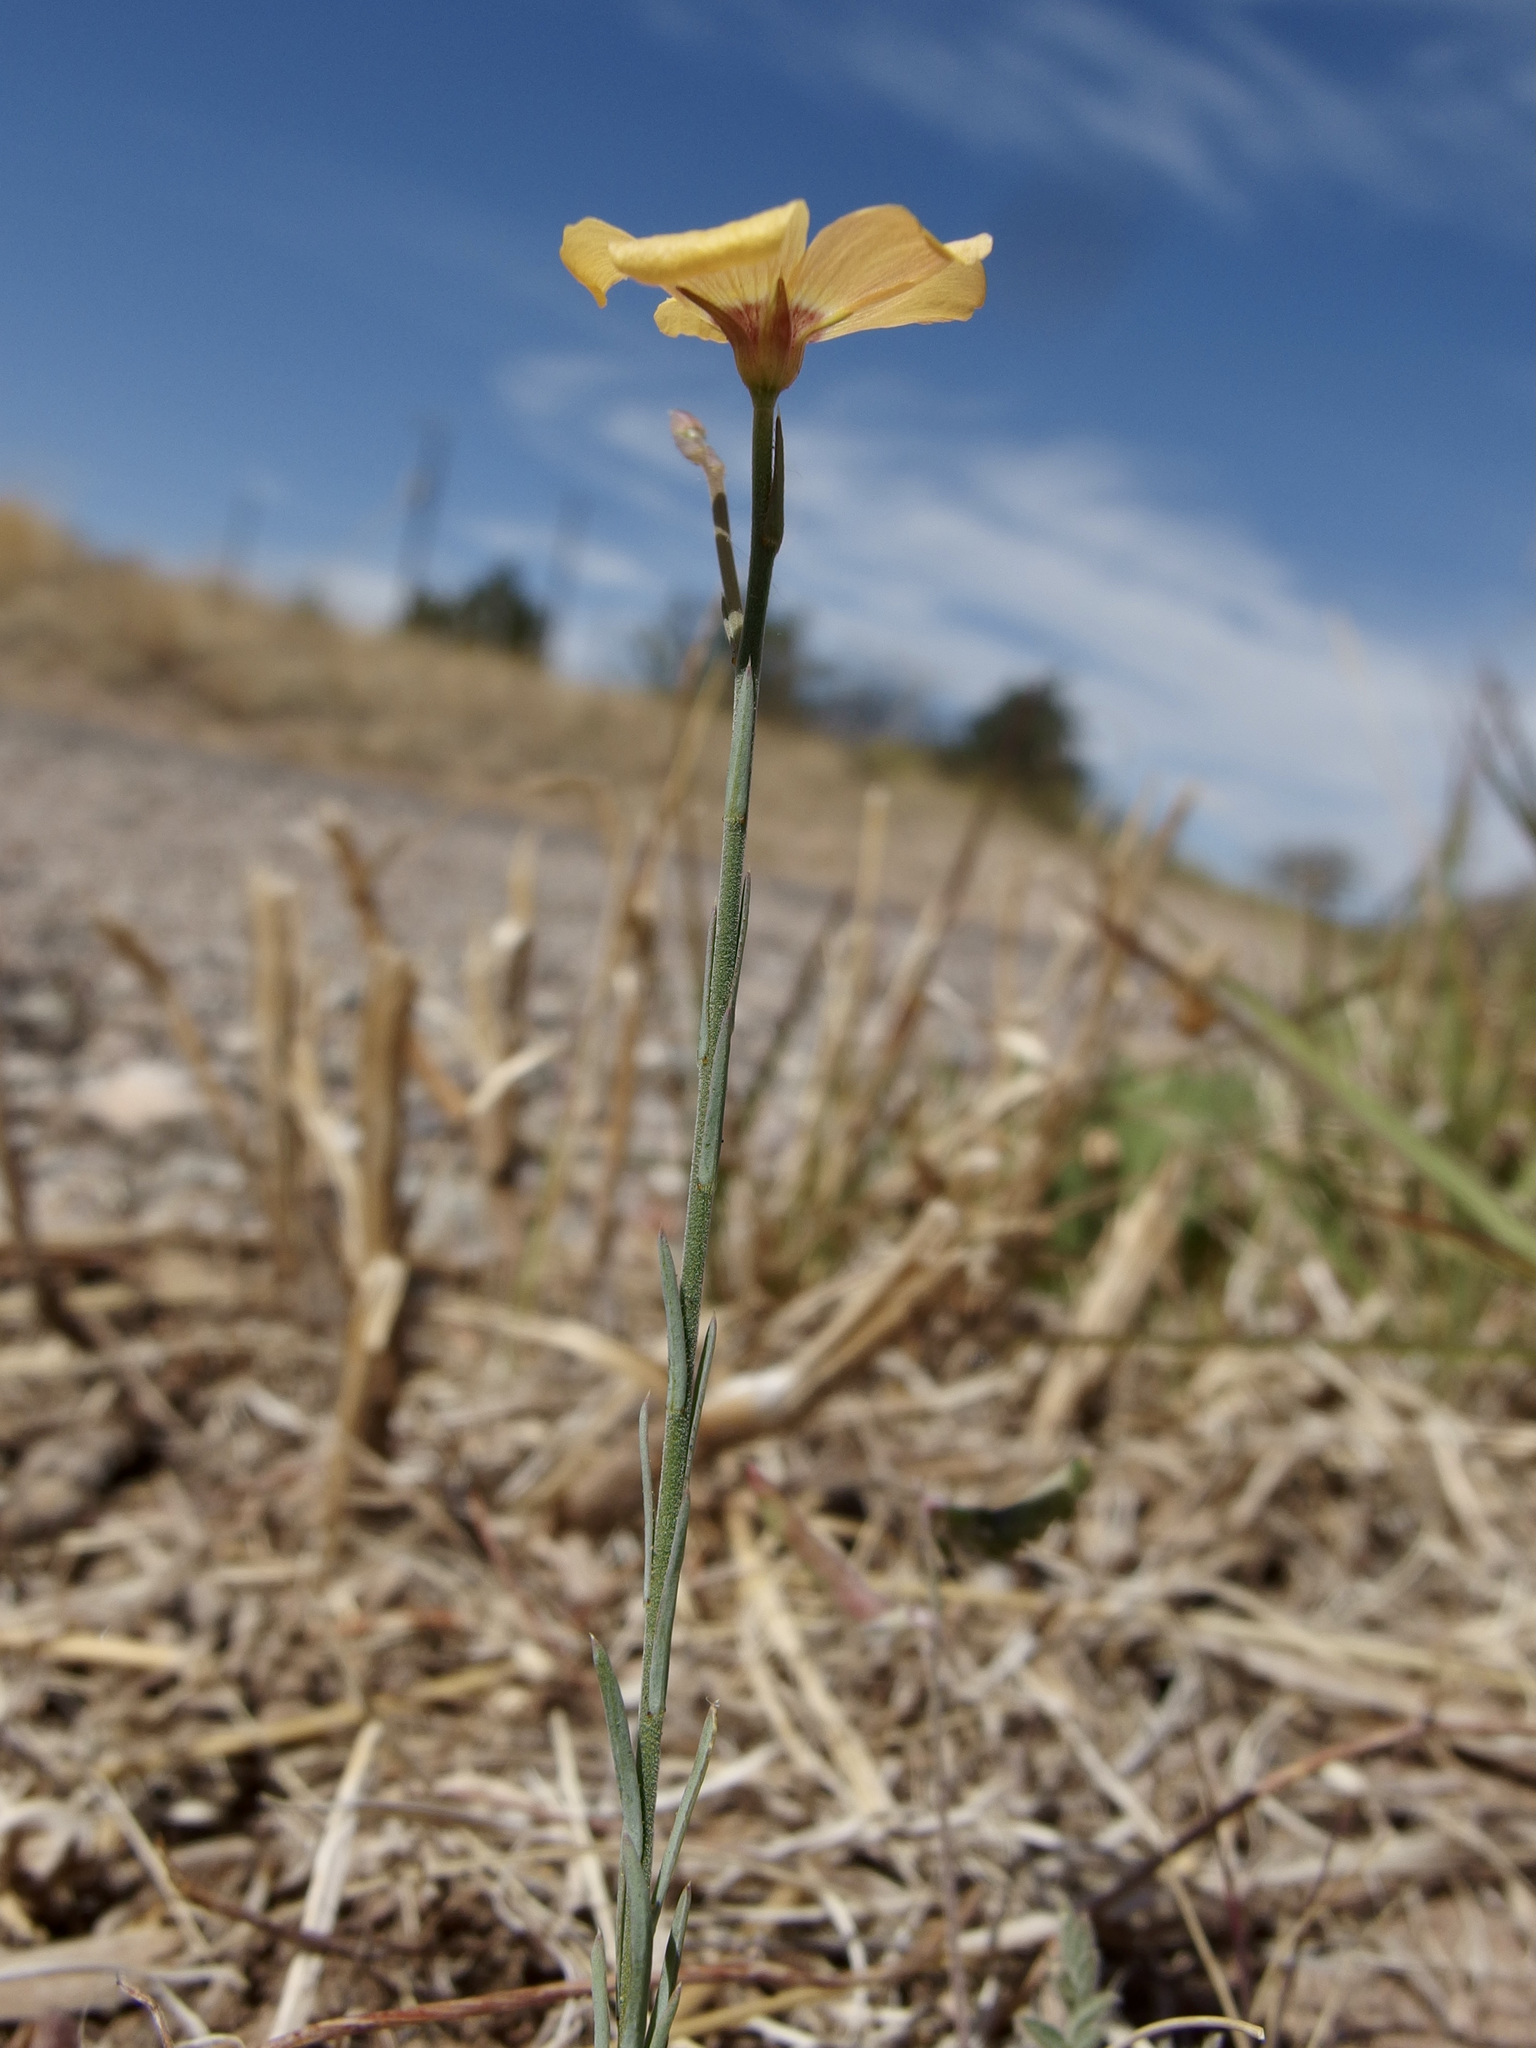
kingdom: Plantae
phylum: Tracheophyta
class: Magnoliopsida
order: Malpighiales
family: Linaceae
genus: Linum
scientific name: Linum puberulum
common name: Plains flax
